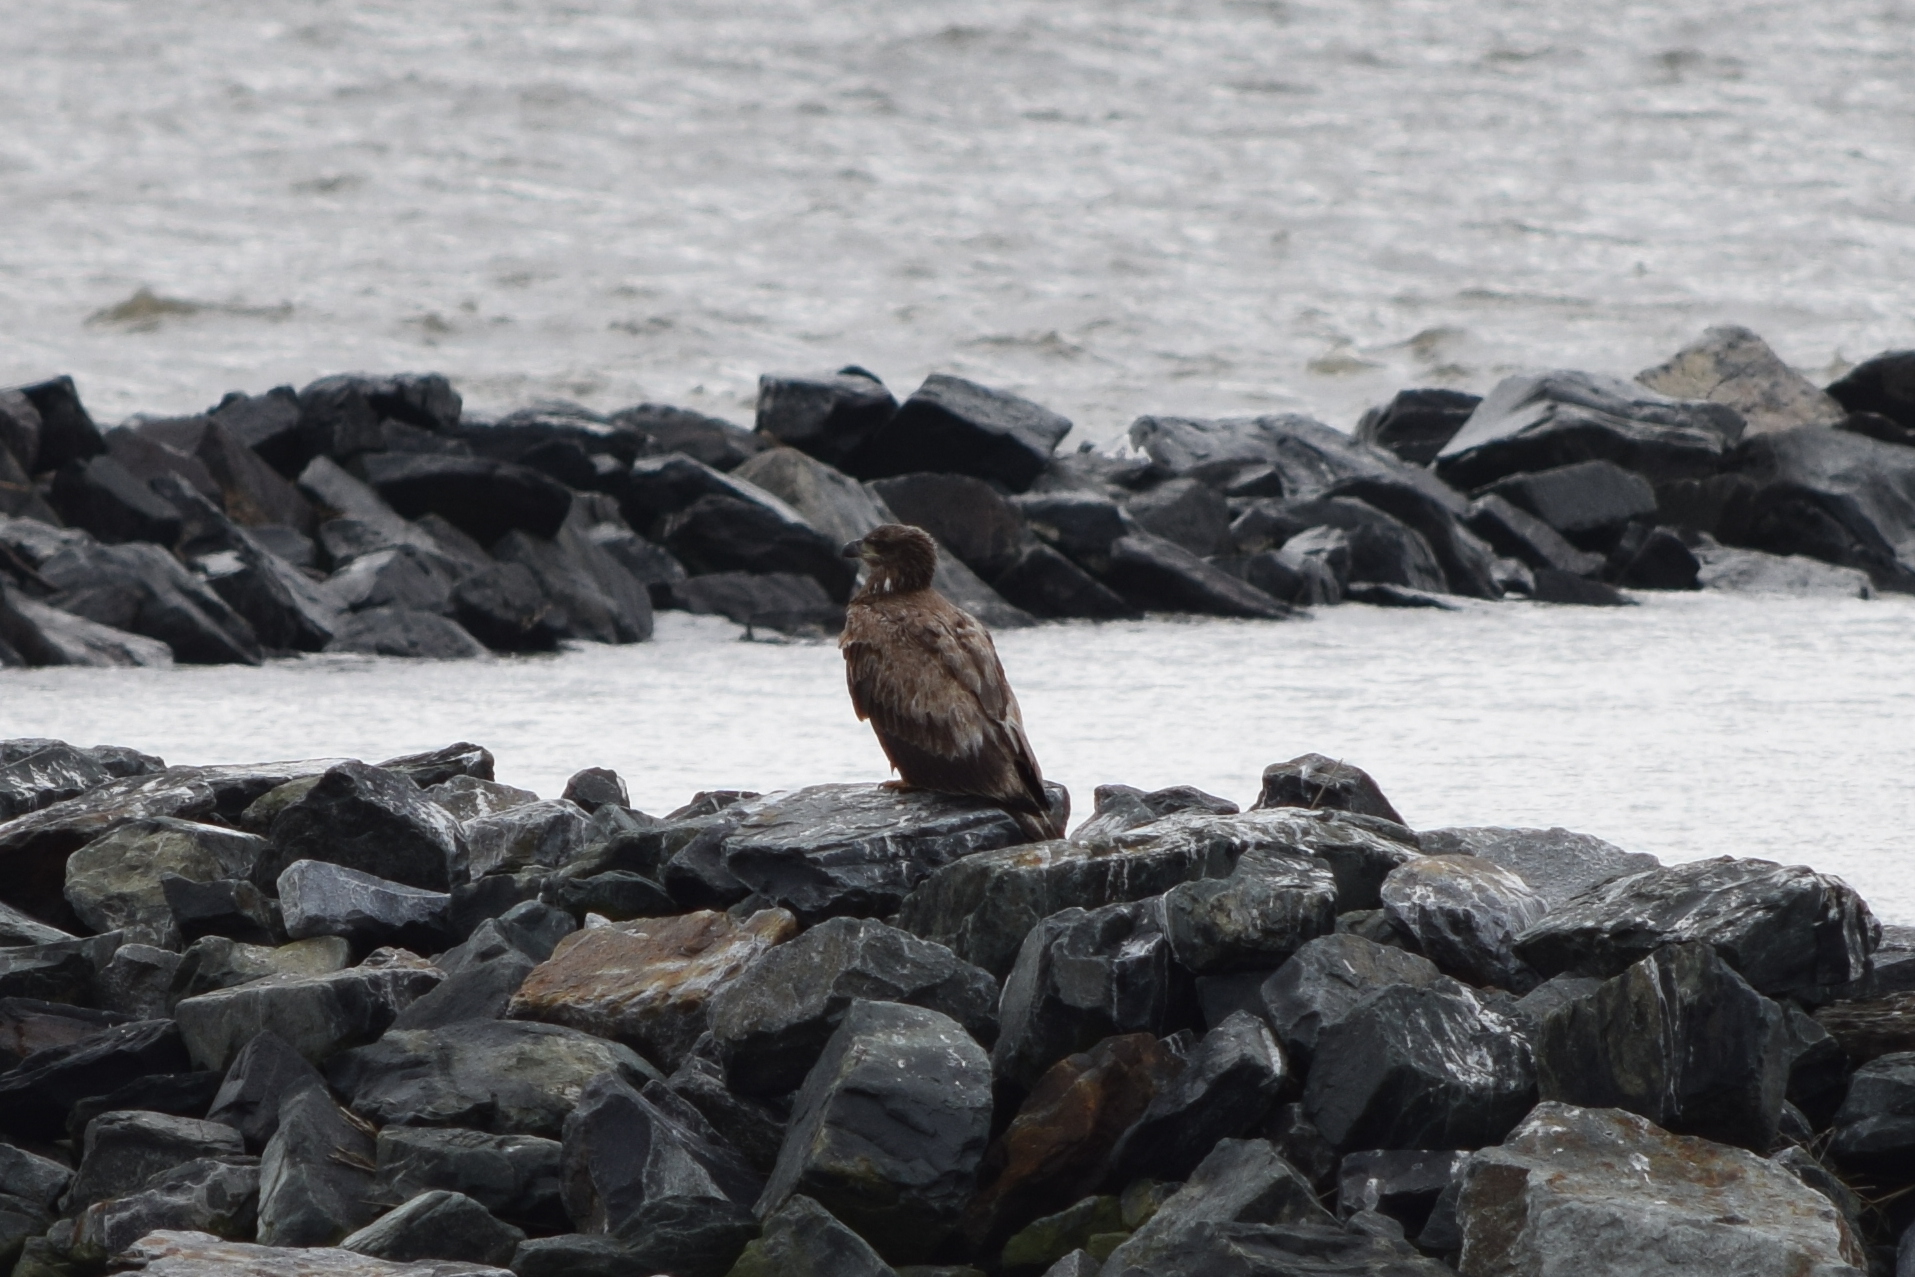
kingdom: Animalia
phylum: Chordata
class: Aves
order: Accipitriformes
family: Accipitridae
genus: Haliaeetus
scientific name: Haliaeetus leucocephalus
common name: Bald eagle
